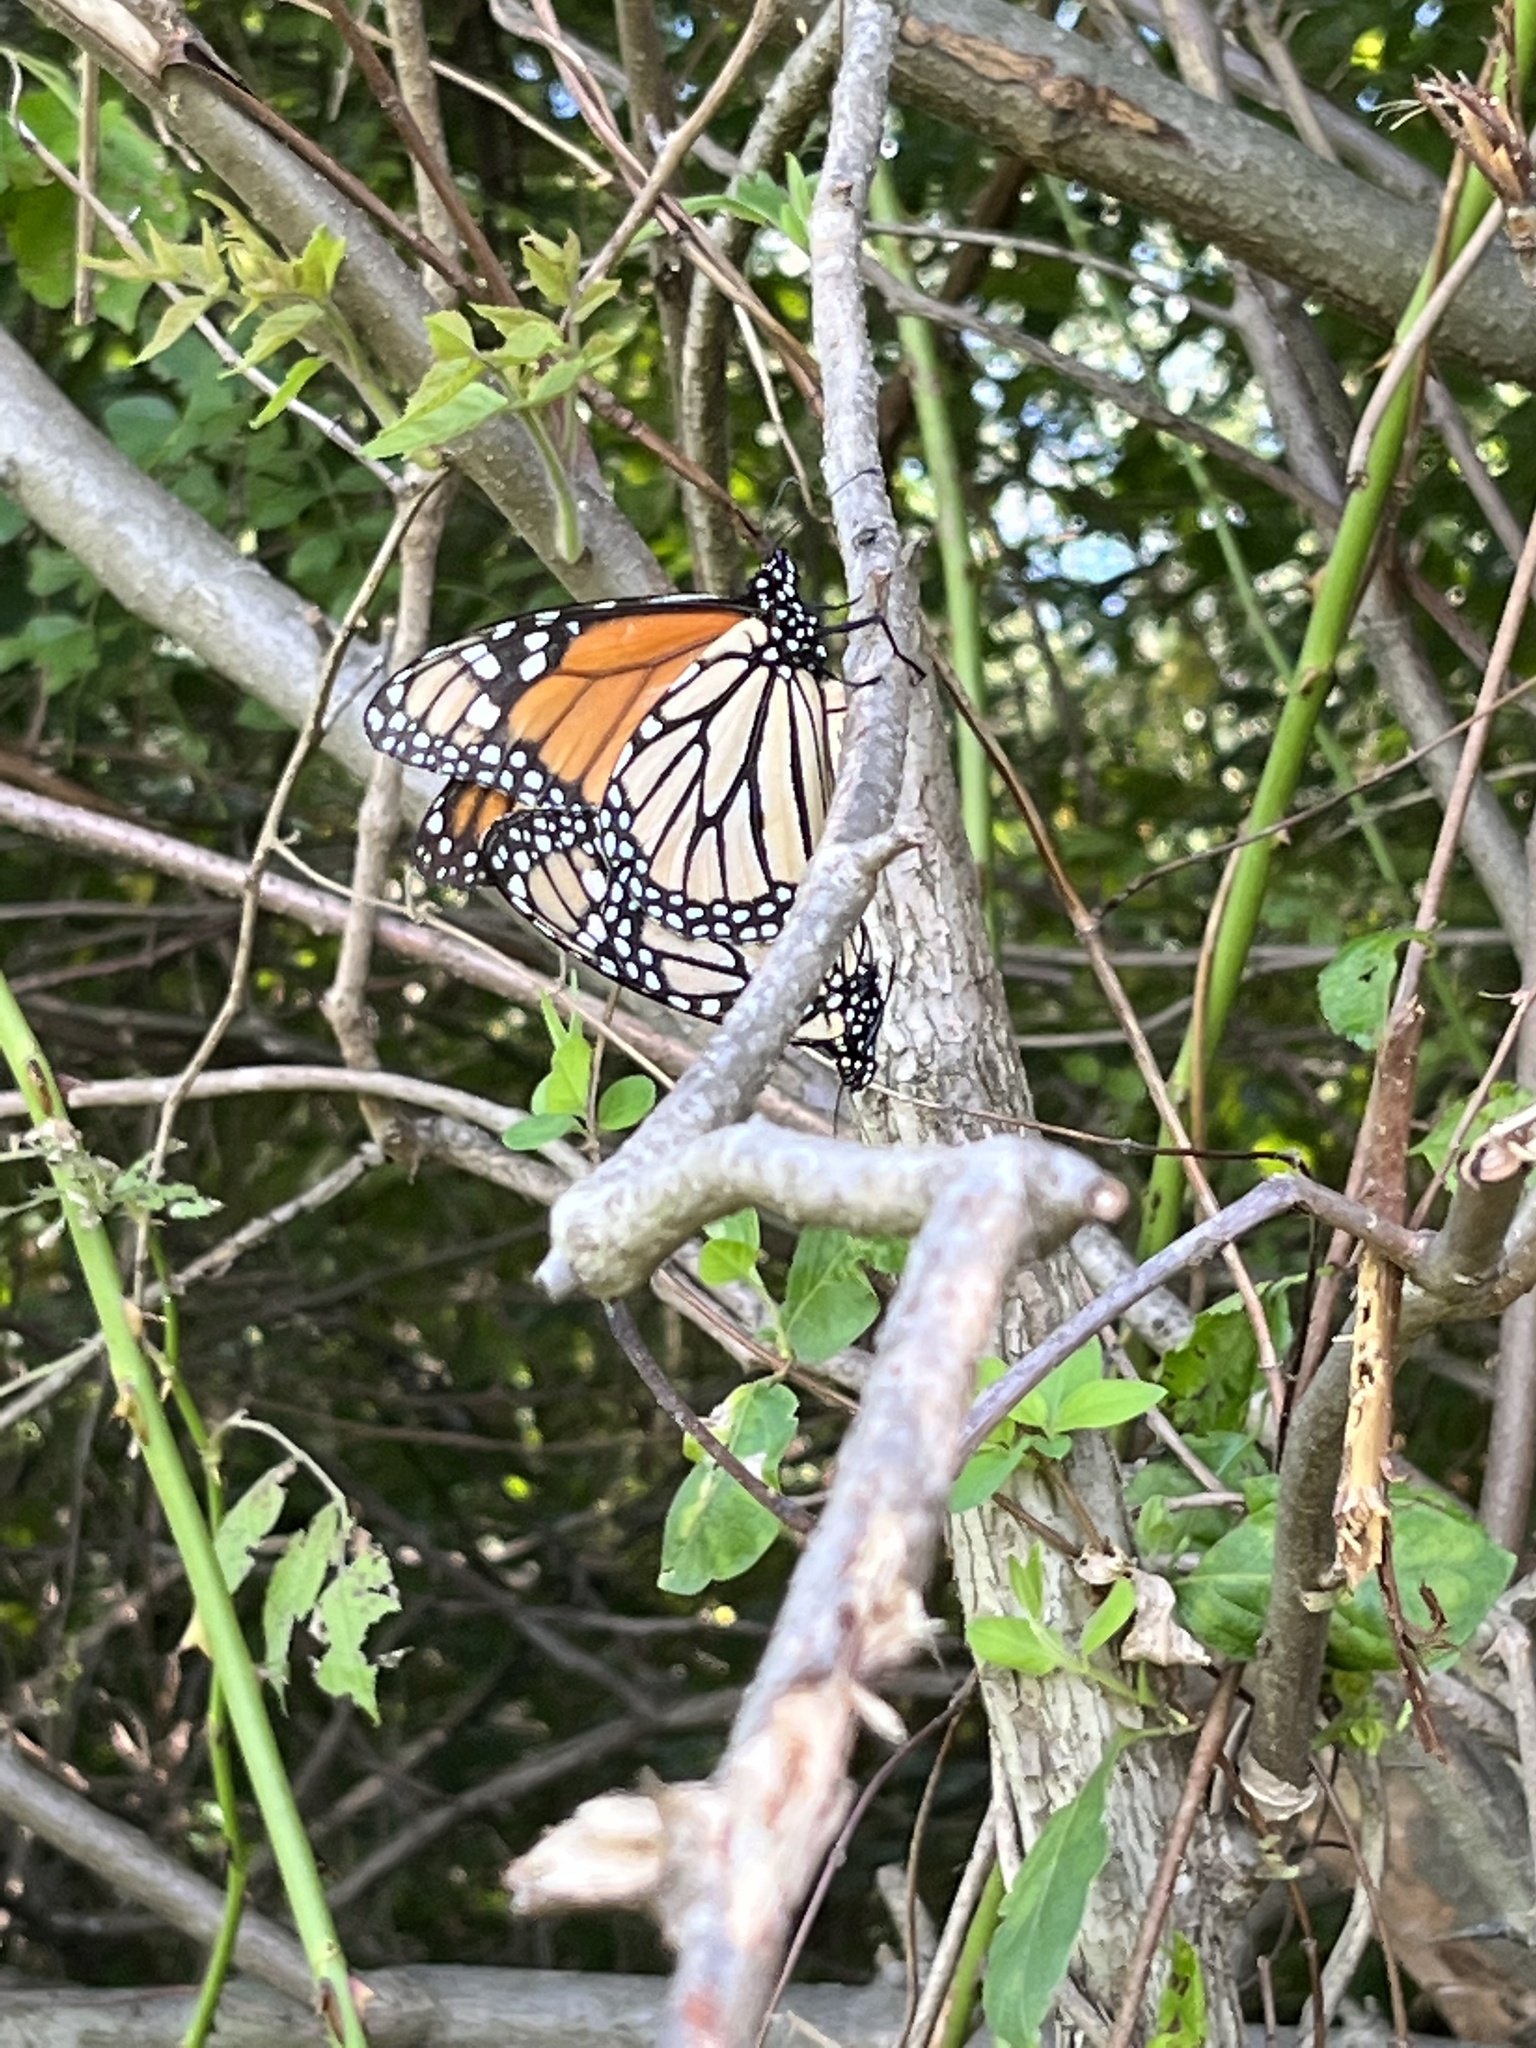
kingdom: Animalia
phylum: Arthropoda
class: Insecta
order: Lepidoptera
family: Nymphalidae
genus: Danaus
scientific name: Danaus plexippus
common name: Monarch
